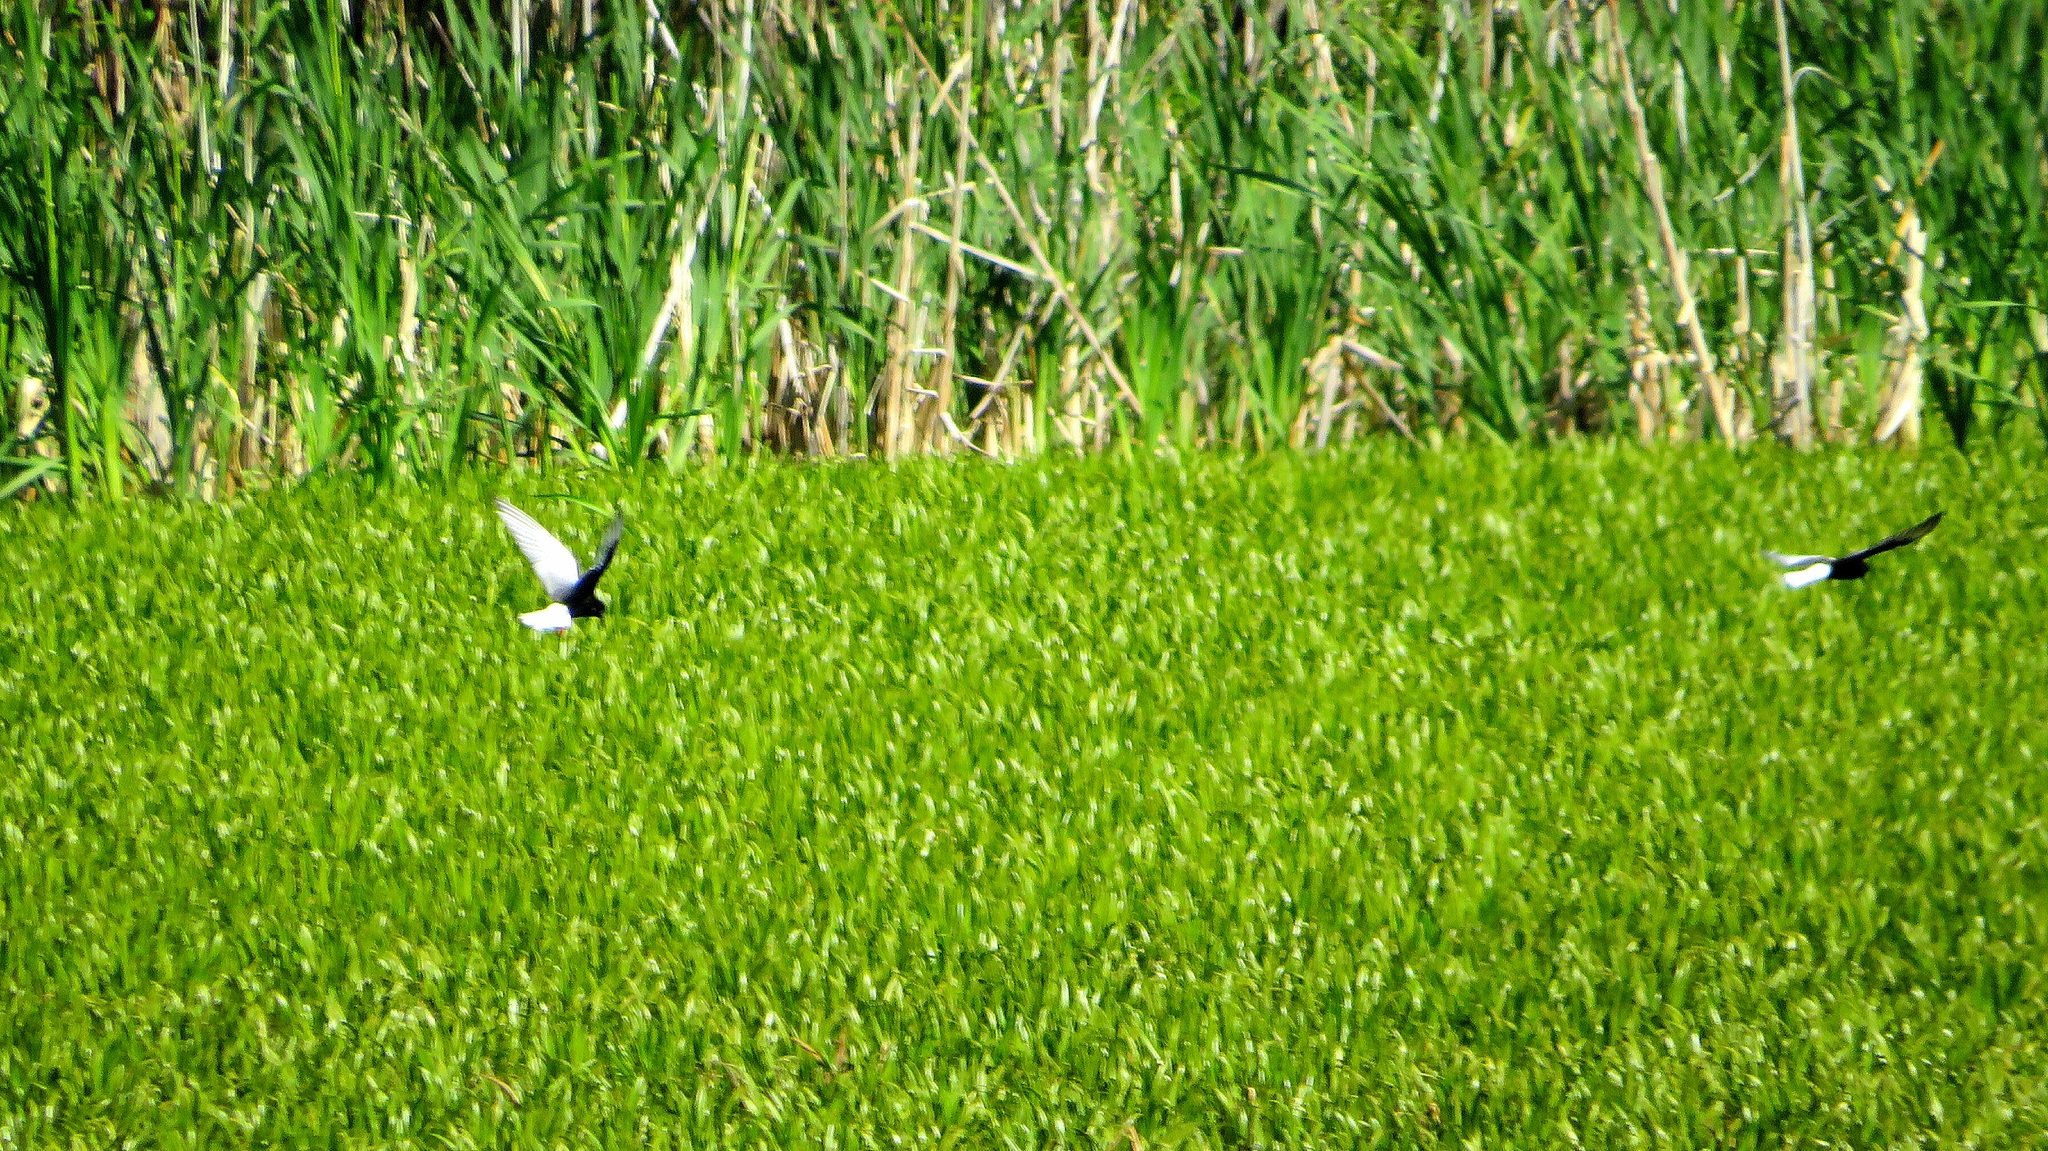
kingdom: Animalia
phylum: Chordata
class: Aves
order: Charadriiformes
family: Laridae
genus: Chlidonias
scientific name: Chlidonias leucopterus
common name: White-winged tern
